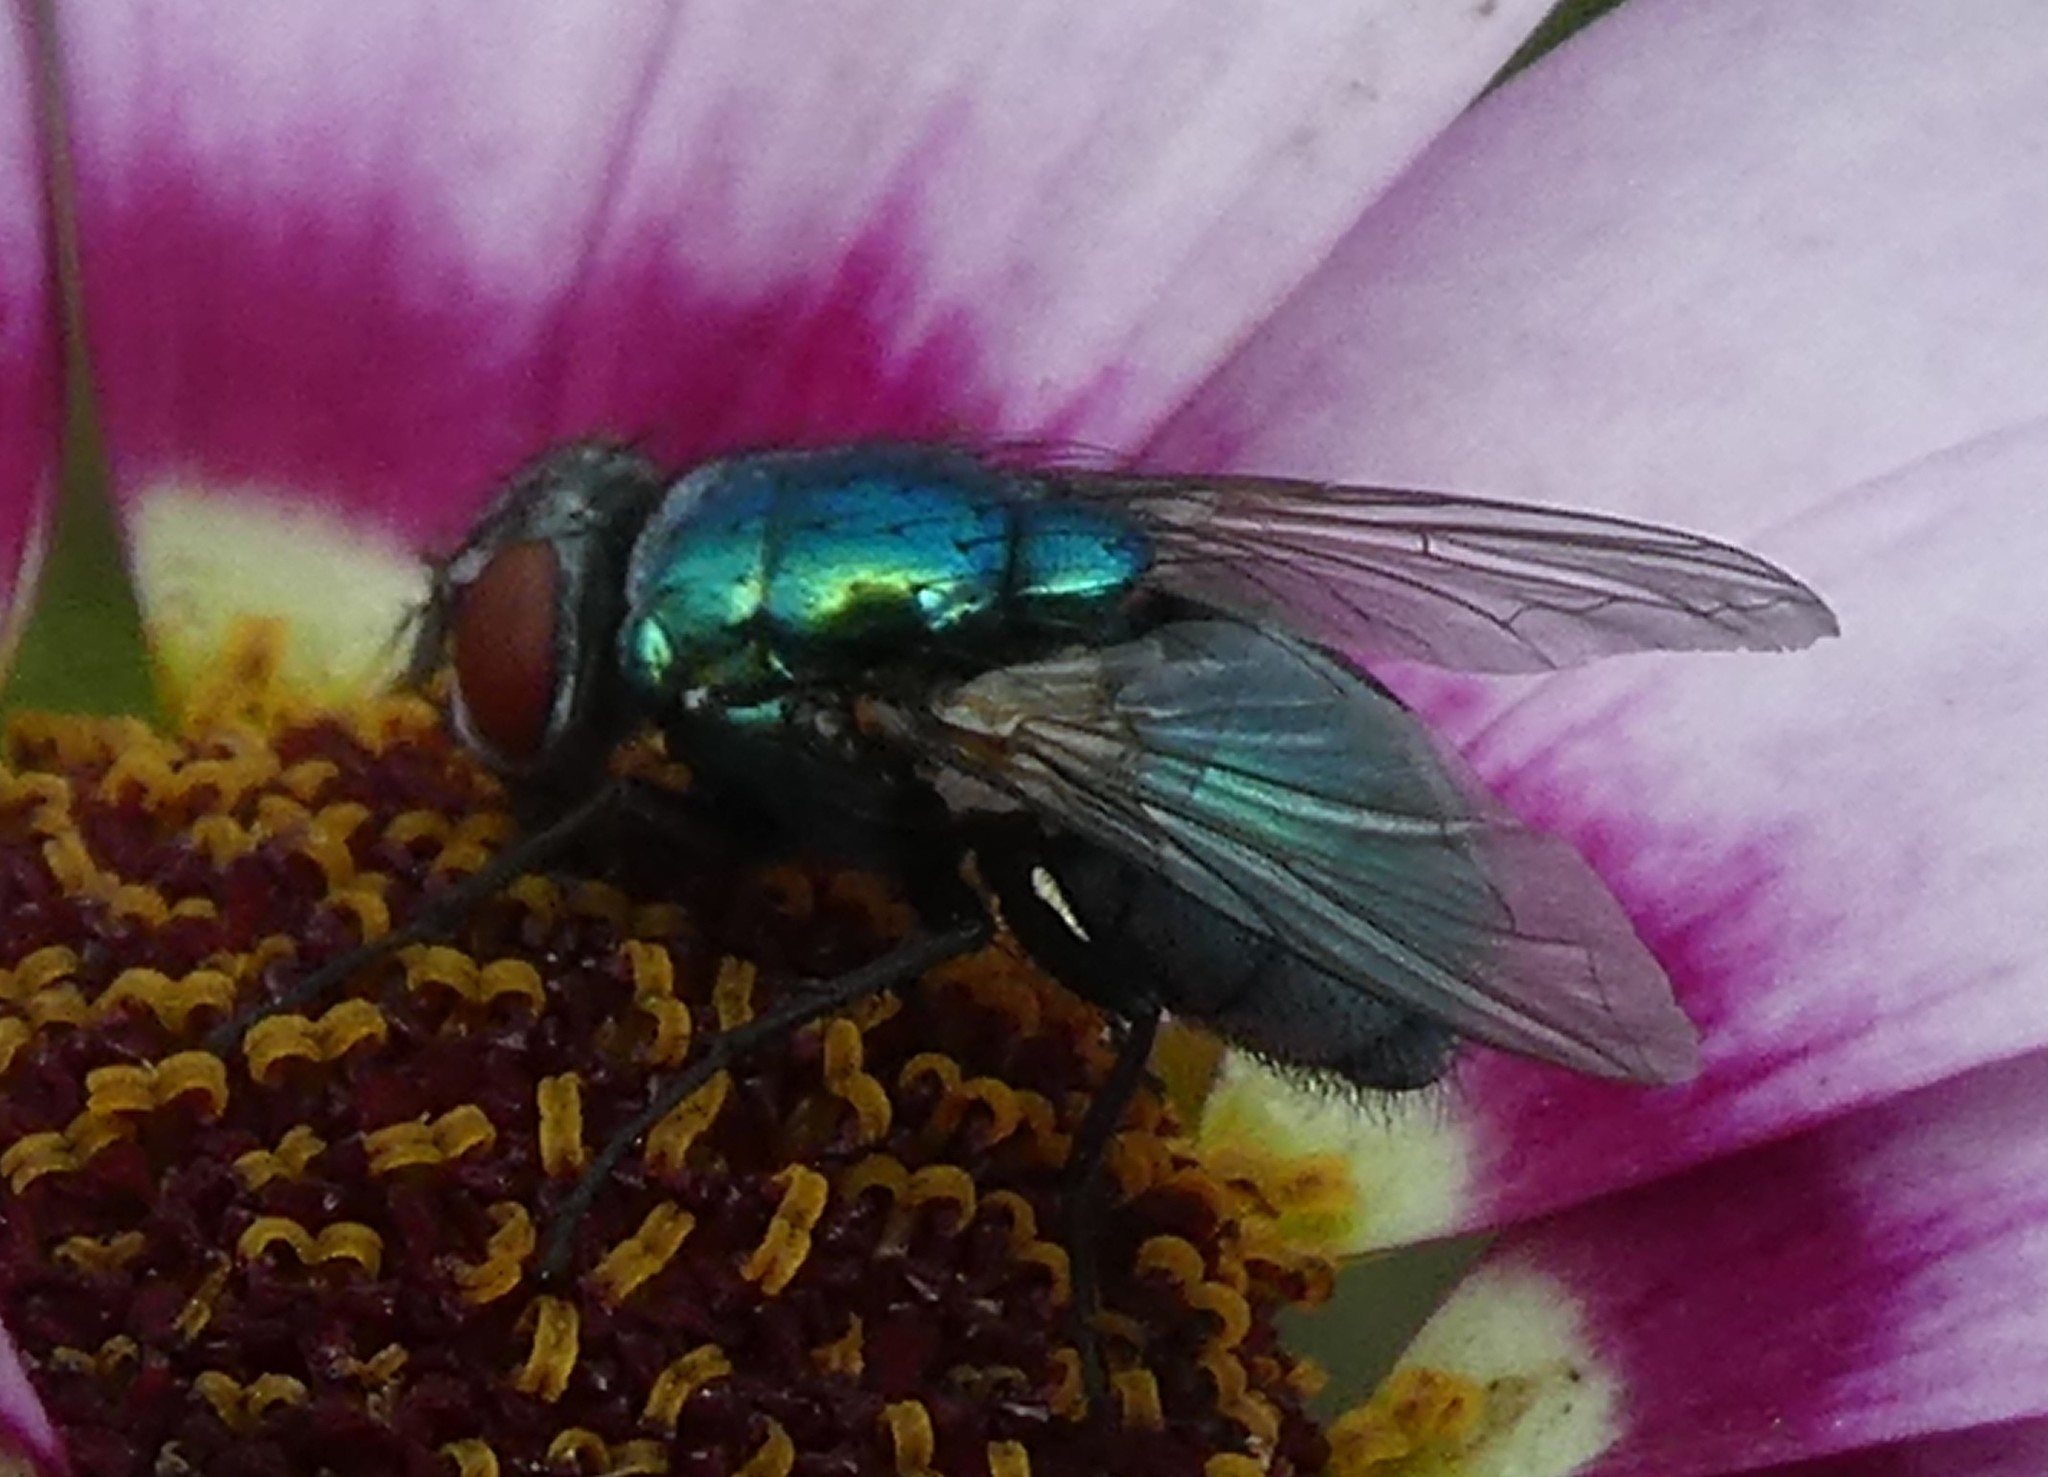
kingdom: Animalia
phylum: Arthropoda
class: Insecta
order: Diptera
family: Calliphoridae
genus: Lucilia
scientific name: Lucilia
